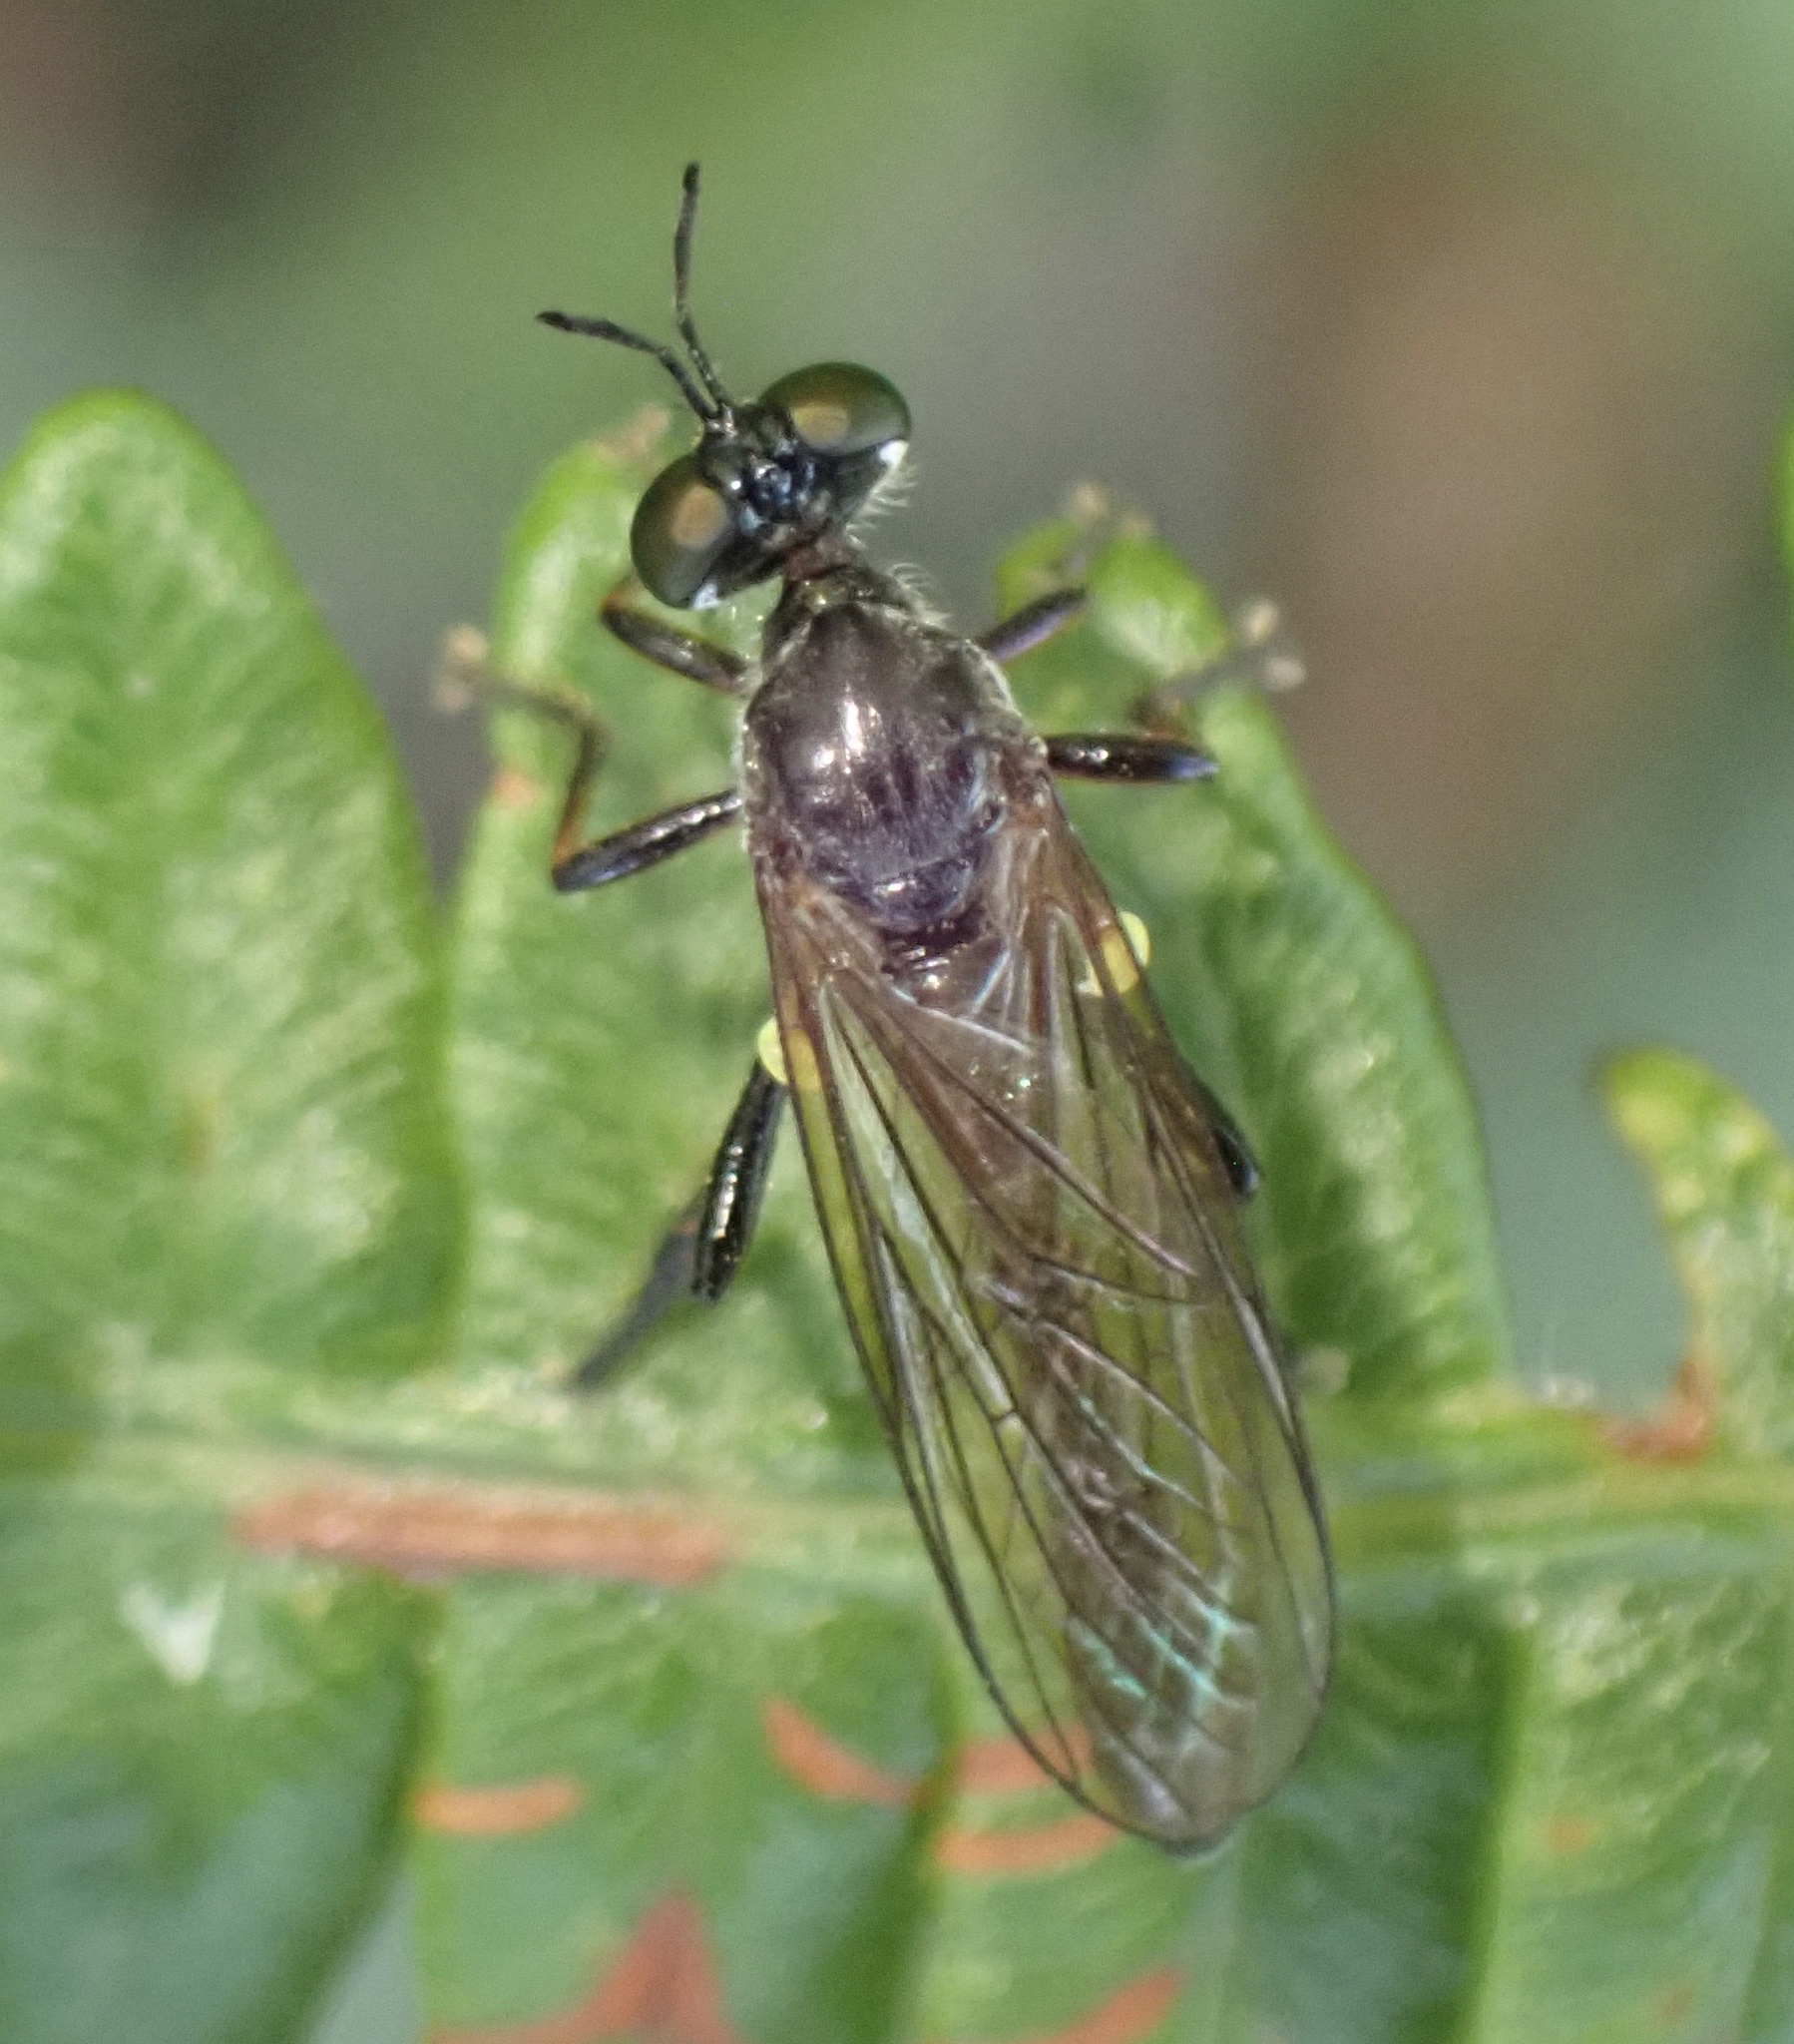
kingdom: Animalia
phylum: Arthropoda
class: Insecta
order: Diptera
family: Asilidae
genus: Dioctria
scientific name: Dioctria hyalipennis
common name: Stripe-legged robberfly
